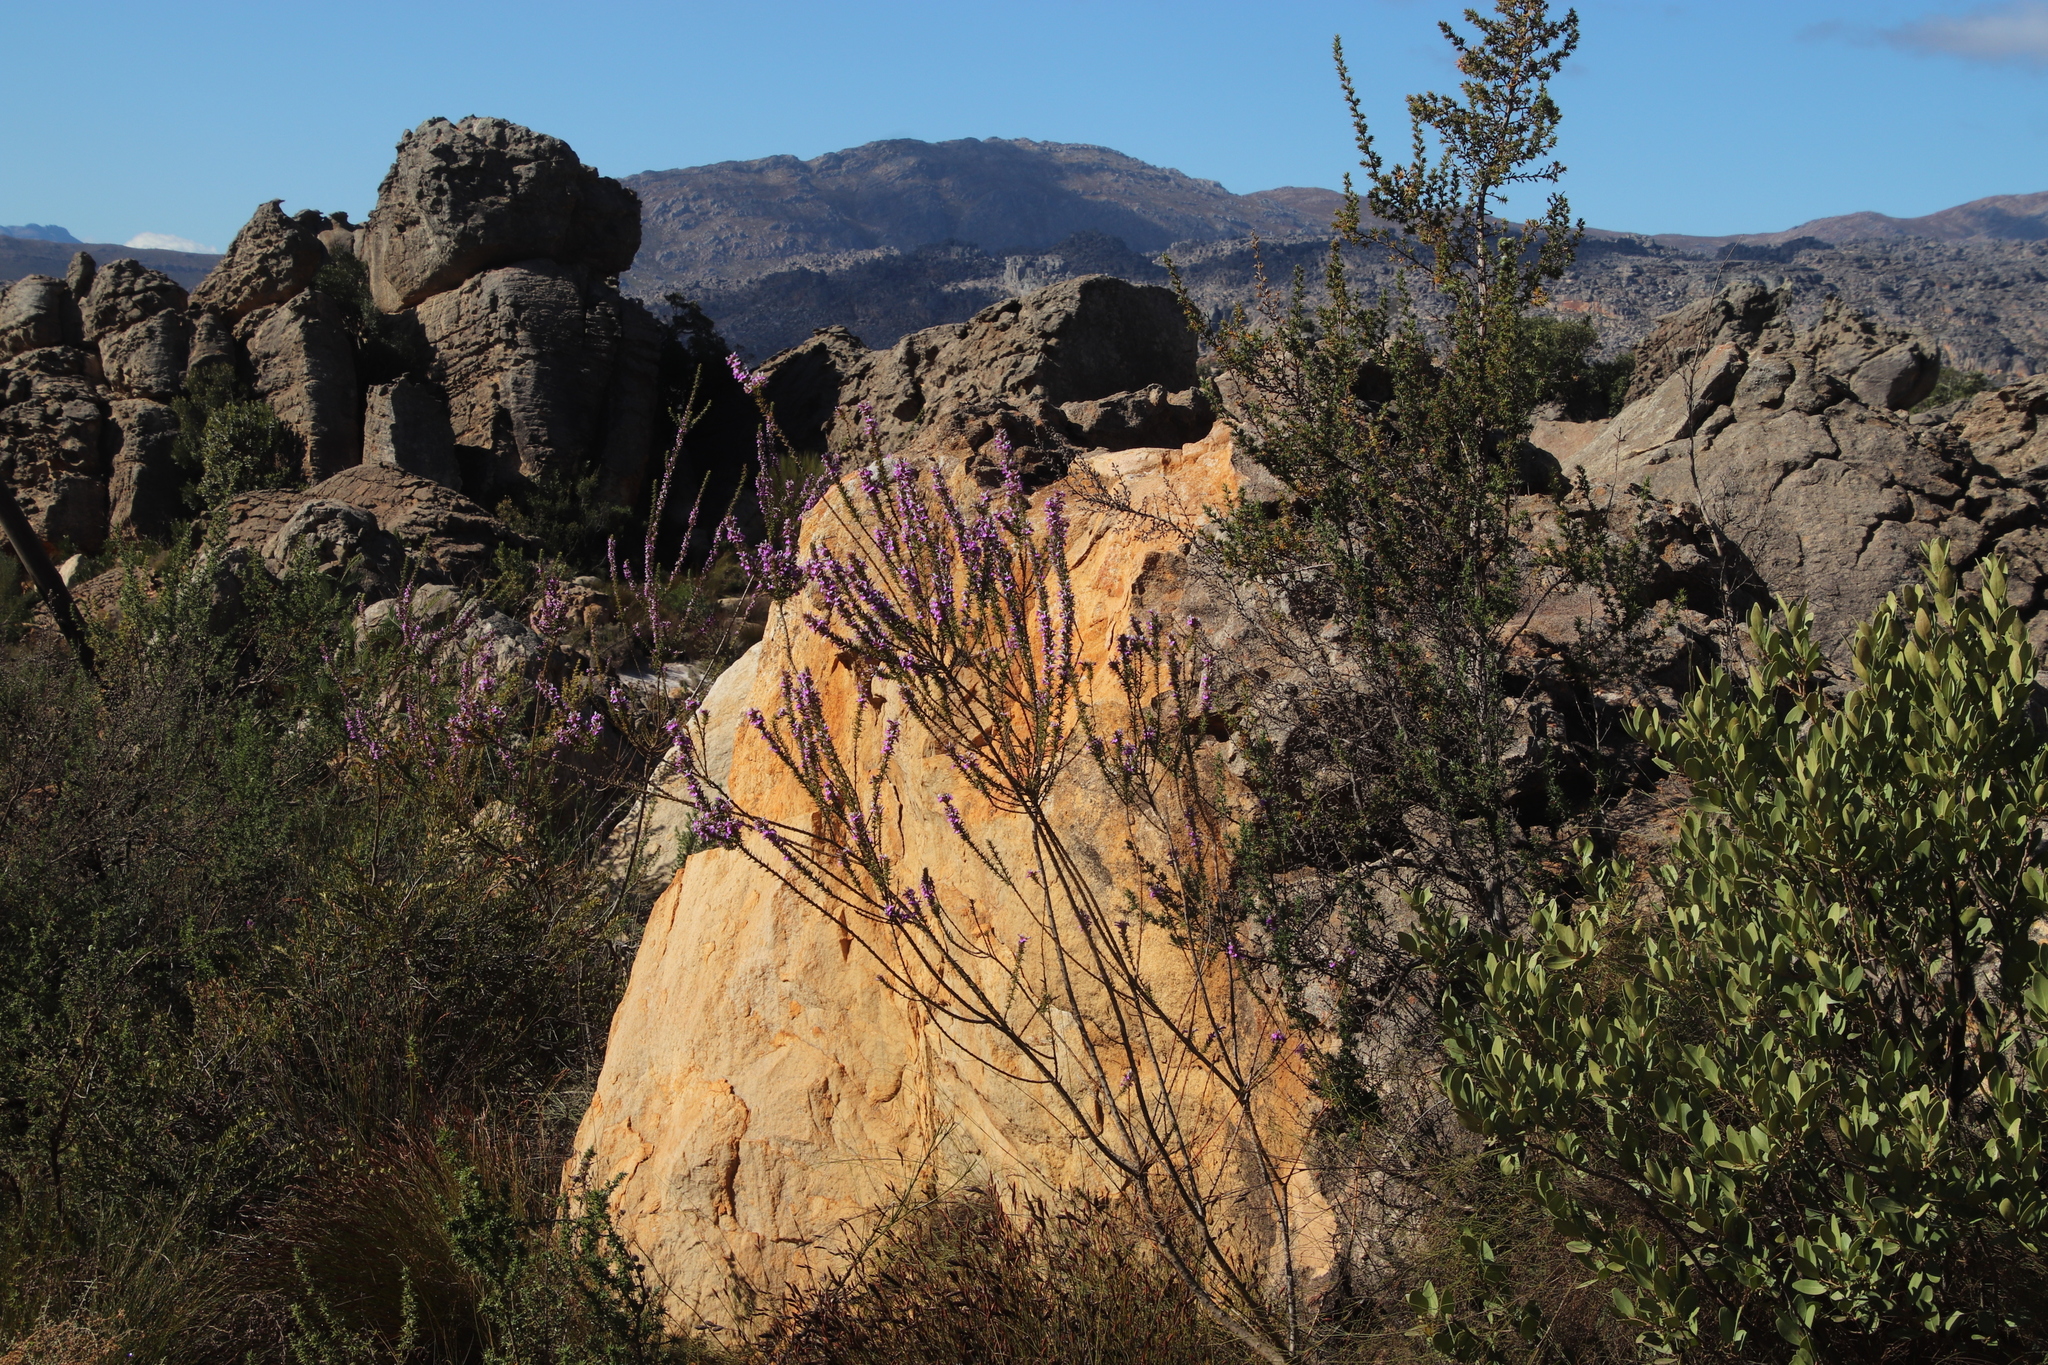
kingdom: Plantae
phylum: Tracheophyta
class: Magnoliopsida
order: Fabales
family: Polygalaceae
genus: Muraltia
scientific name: Muraltia heisteria
